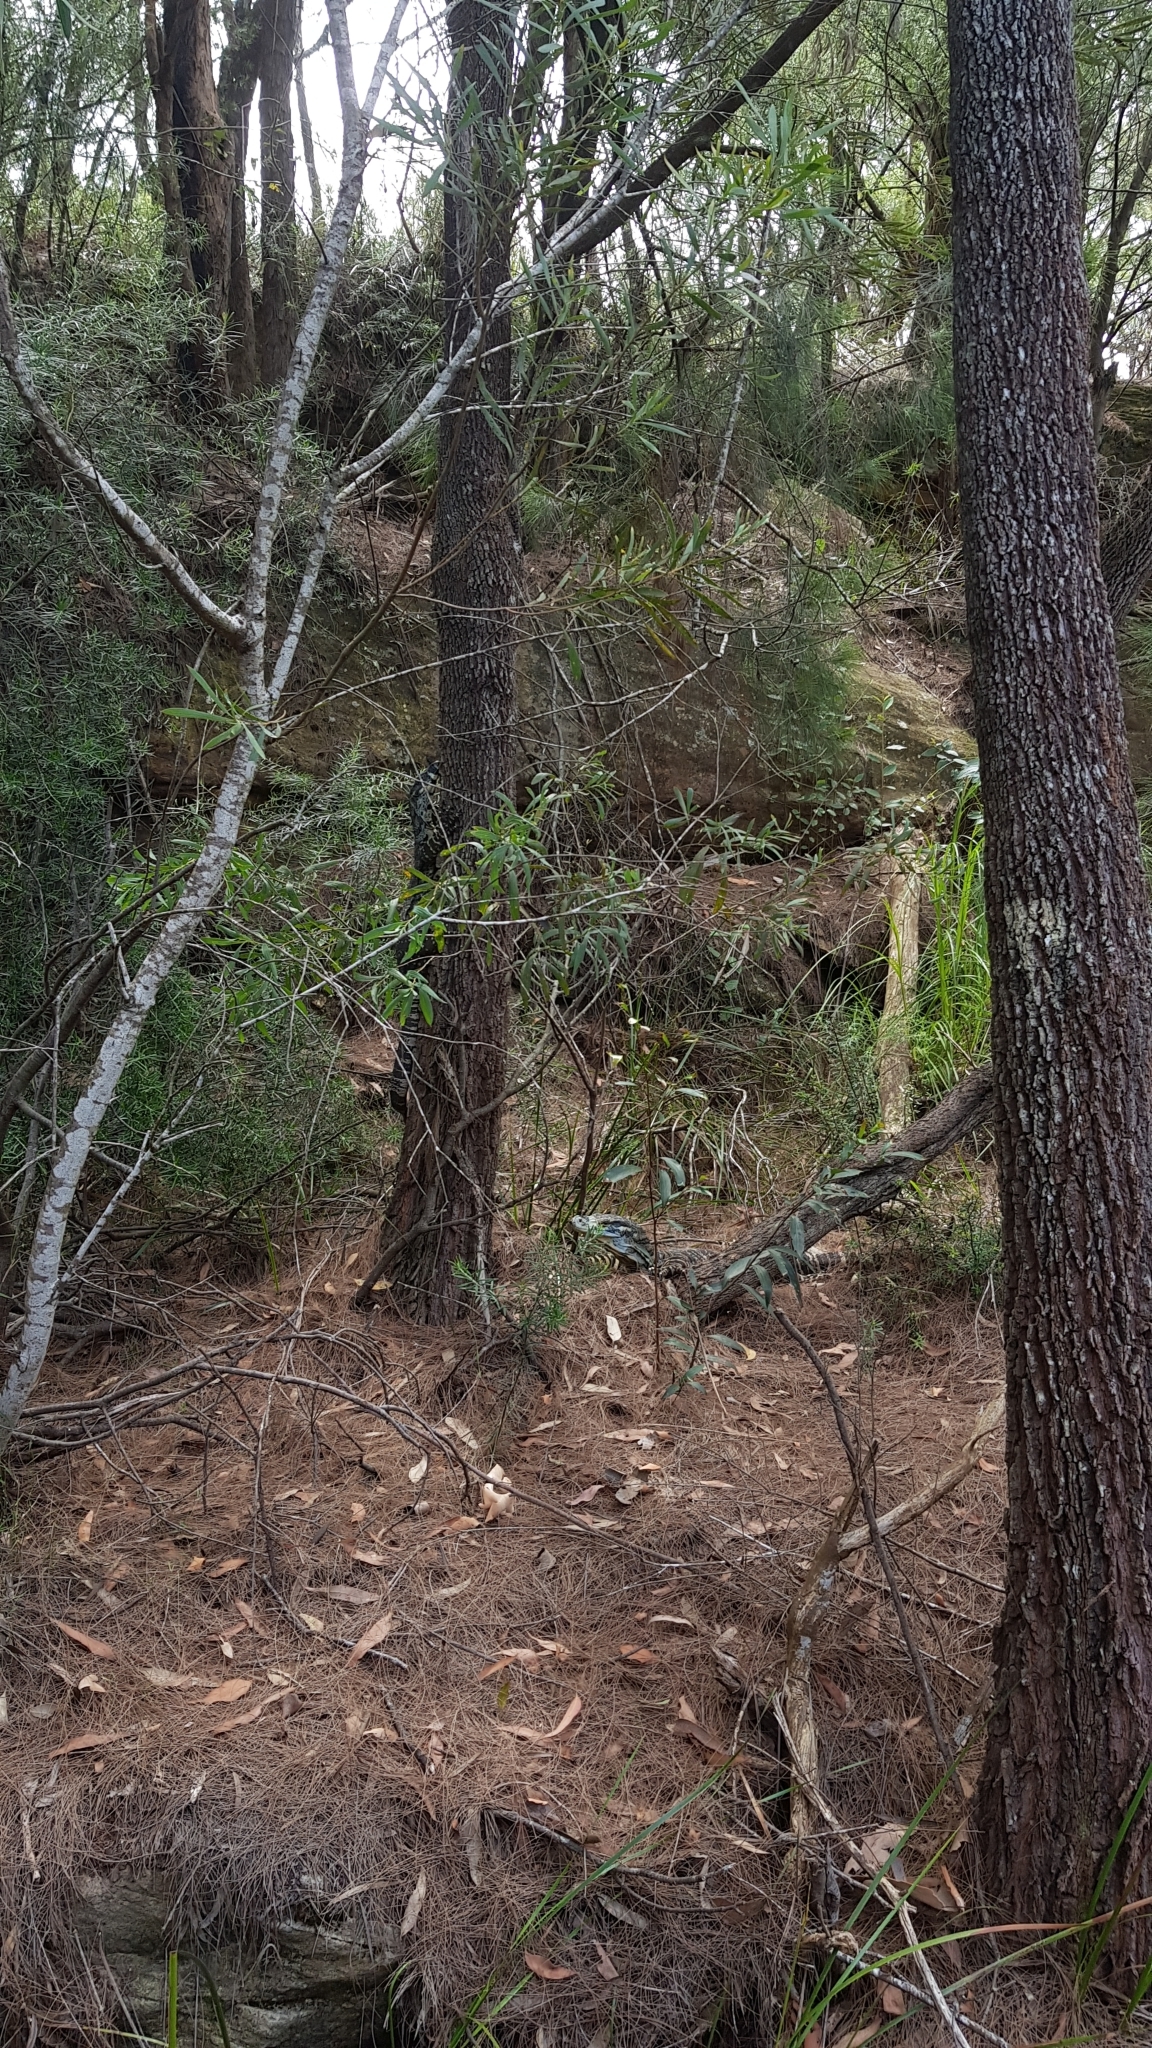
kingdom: Animalia
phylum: Chordata
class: Squamata
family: Varanidae
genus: Varanus
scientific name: Varanus varius
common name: Lace monitor
